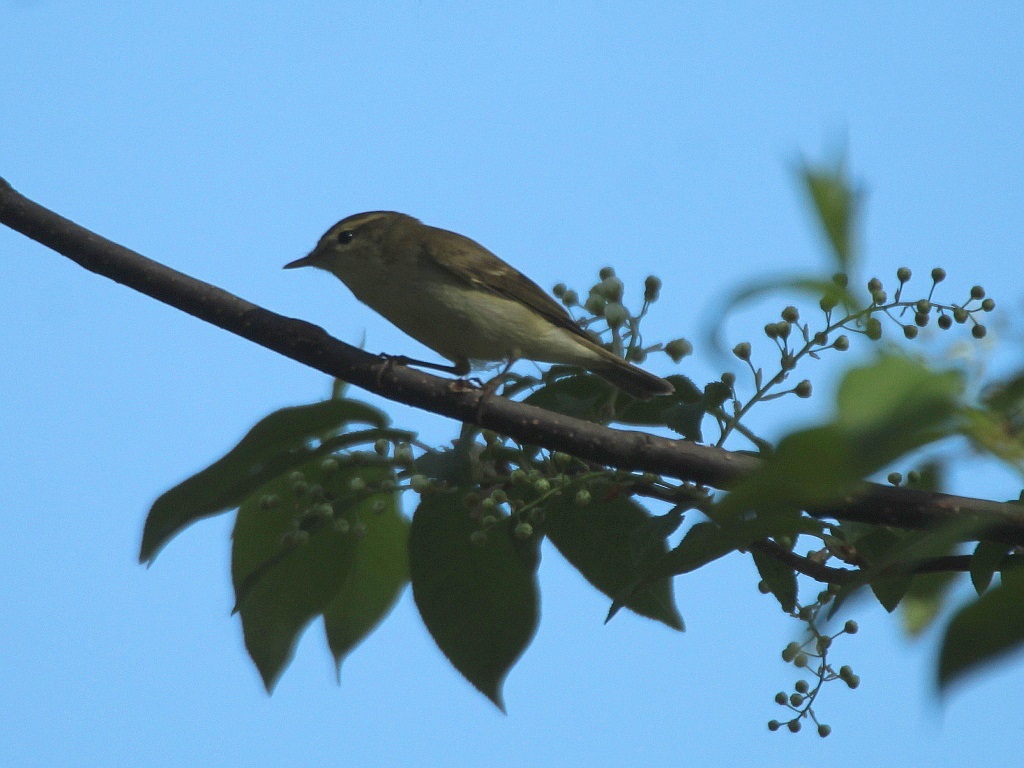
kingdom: Animalia
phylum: Chordata
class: Aves
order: Passeriformes
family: Phylloscopidae
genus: Phylloscopus
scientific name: Phylloscopus trochiloides
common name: Greenish warbler
